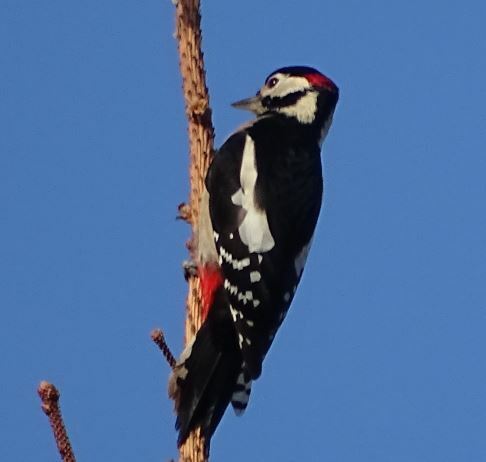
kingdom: Animalia
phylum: Chordata
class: Aves
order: Piciformes
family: Picidae
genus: Dendrocopos
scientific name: Dendrocopos major
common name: Great spotted woodpecker
